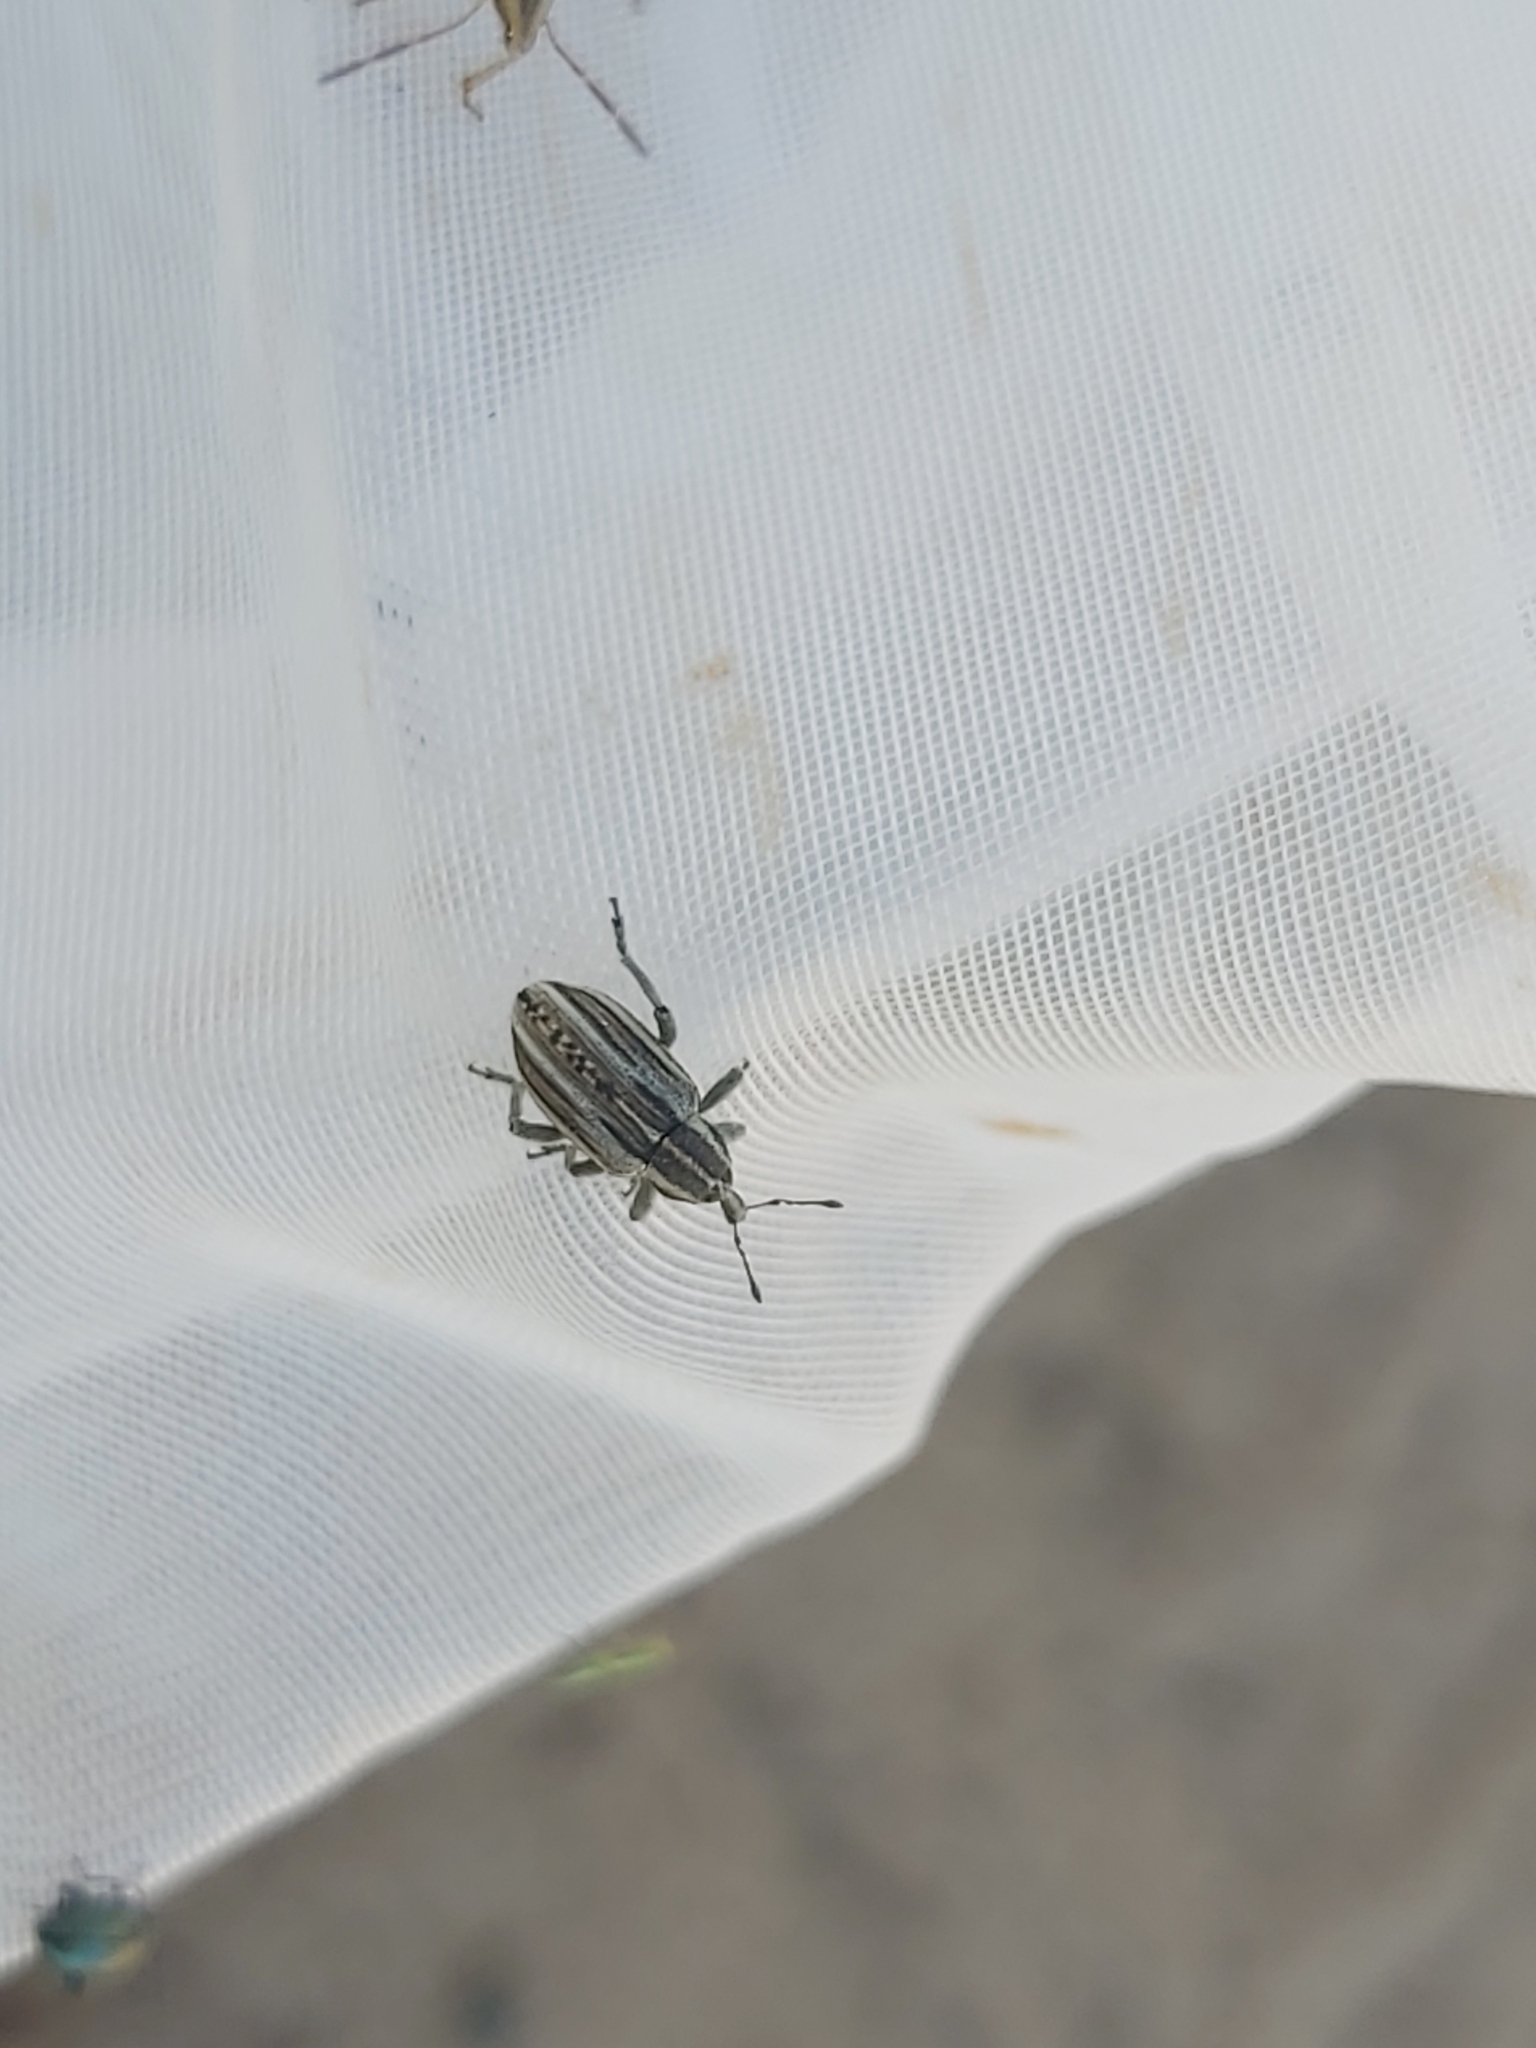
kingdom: Animalia
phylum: Arthropoda
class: Insecta
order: Coleoptera
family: Curculionidae
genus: Hypera
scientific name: Hypera arator
